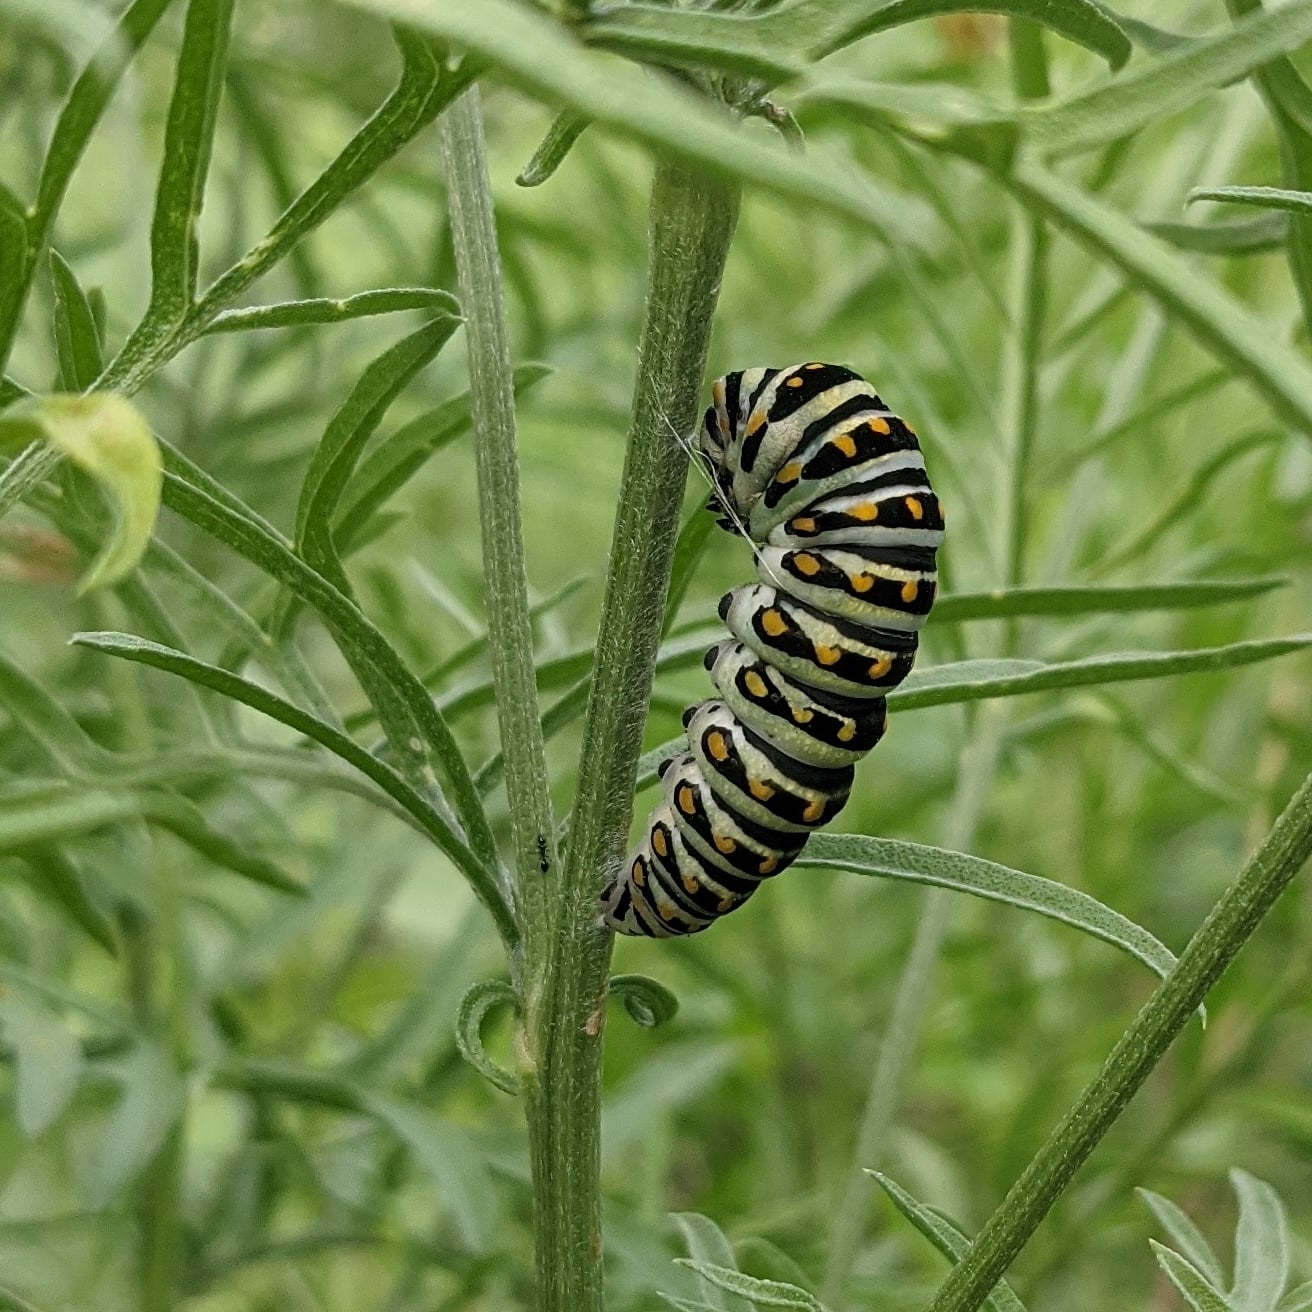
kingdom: Animalia
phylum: Arthropoda
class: Insecta
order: Lepidoptera
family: Papilionidae
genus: Papilio
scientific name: Papilio polyxenes
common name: Black swallowtail
